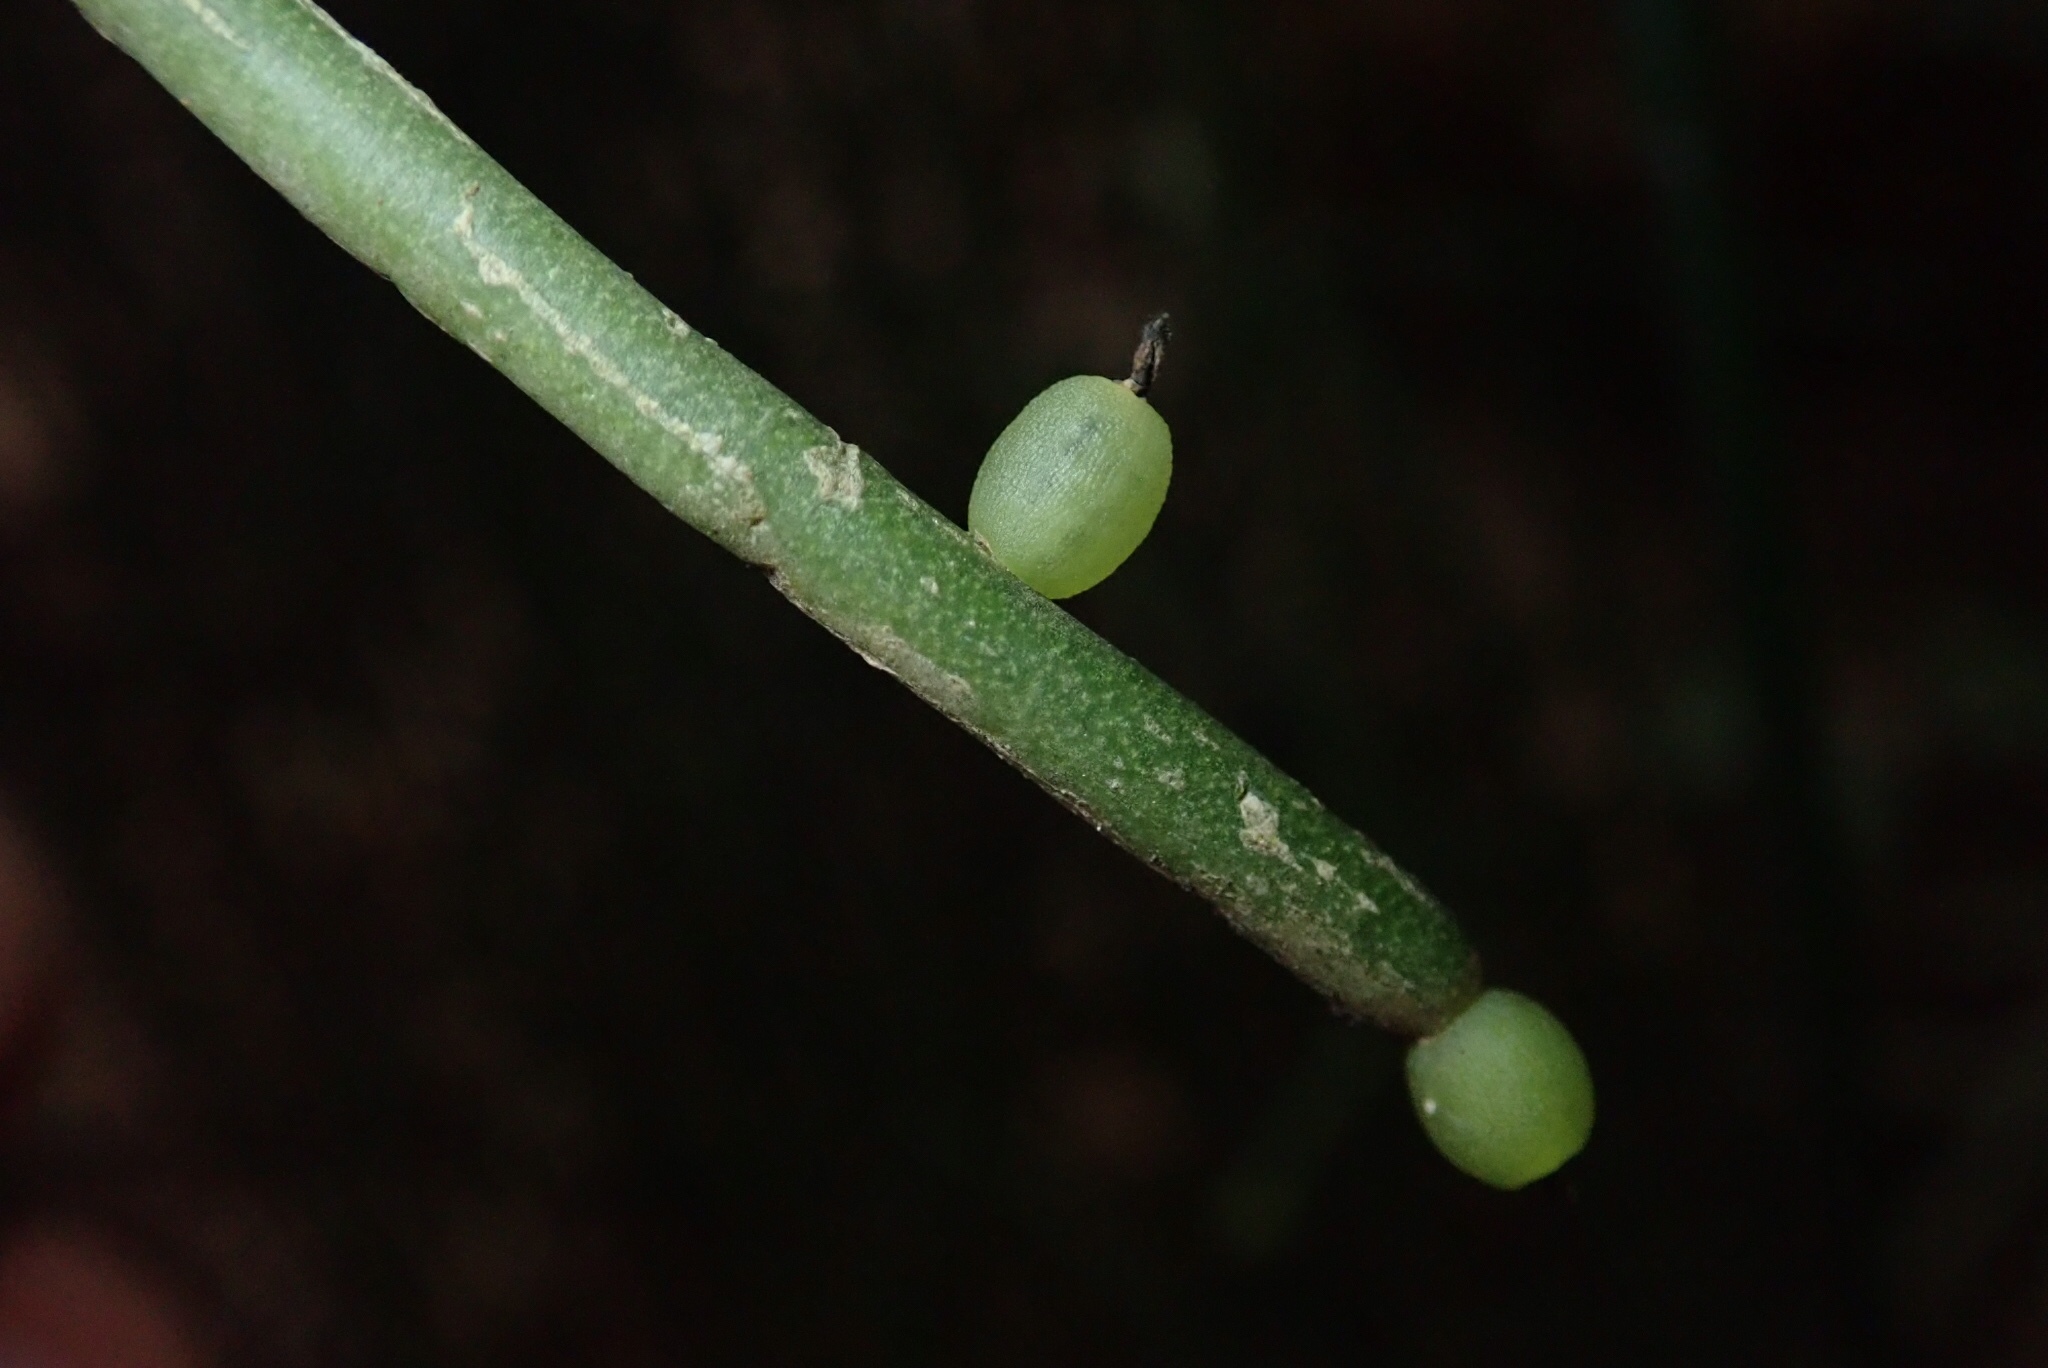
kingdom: Plantae
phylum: Tracheophyta
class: Magnoliopsida
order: Caryophyllales
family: Cactaceae
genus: Rhipsalis
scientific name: Rhipsalis baccifera
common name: Mistletoe cactus
